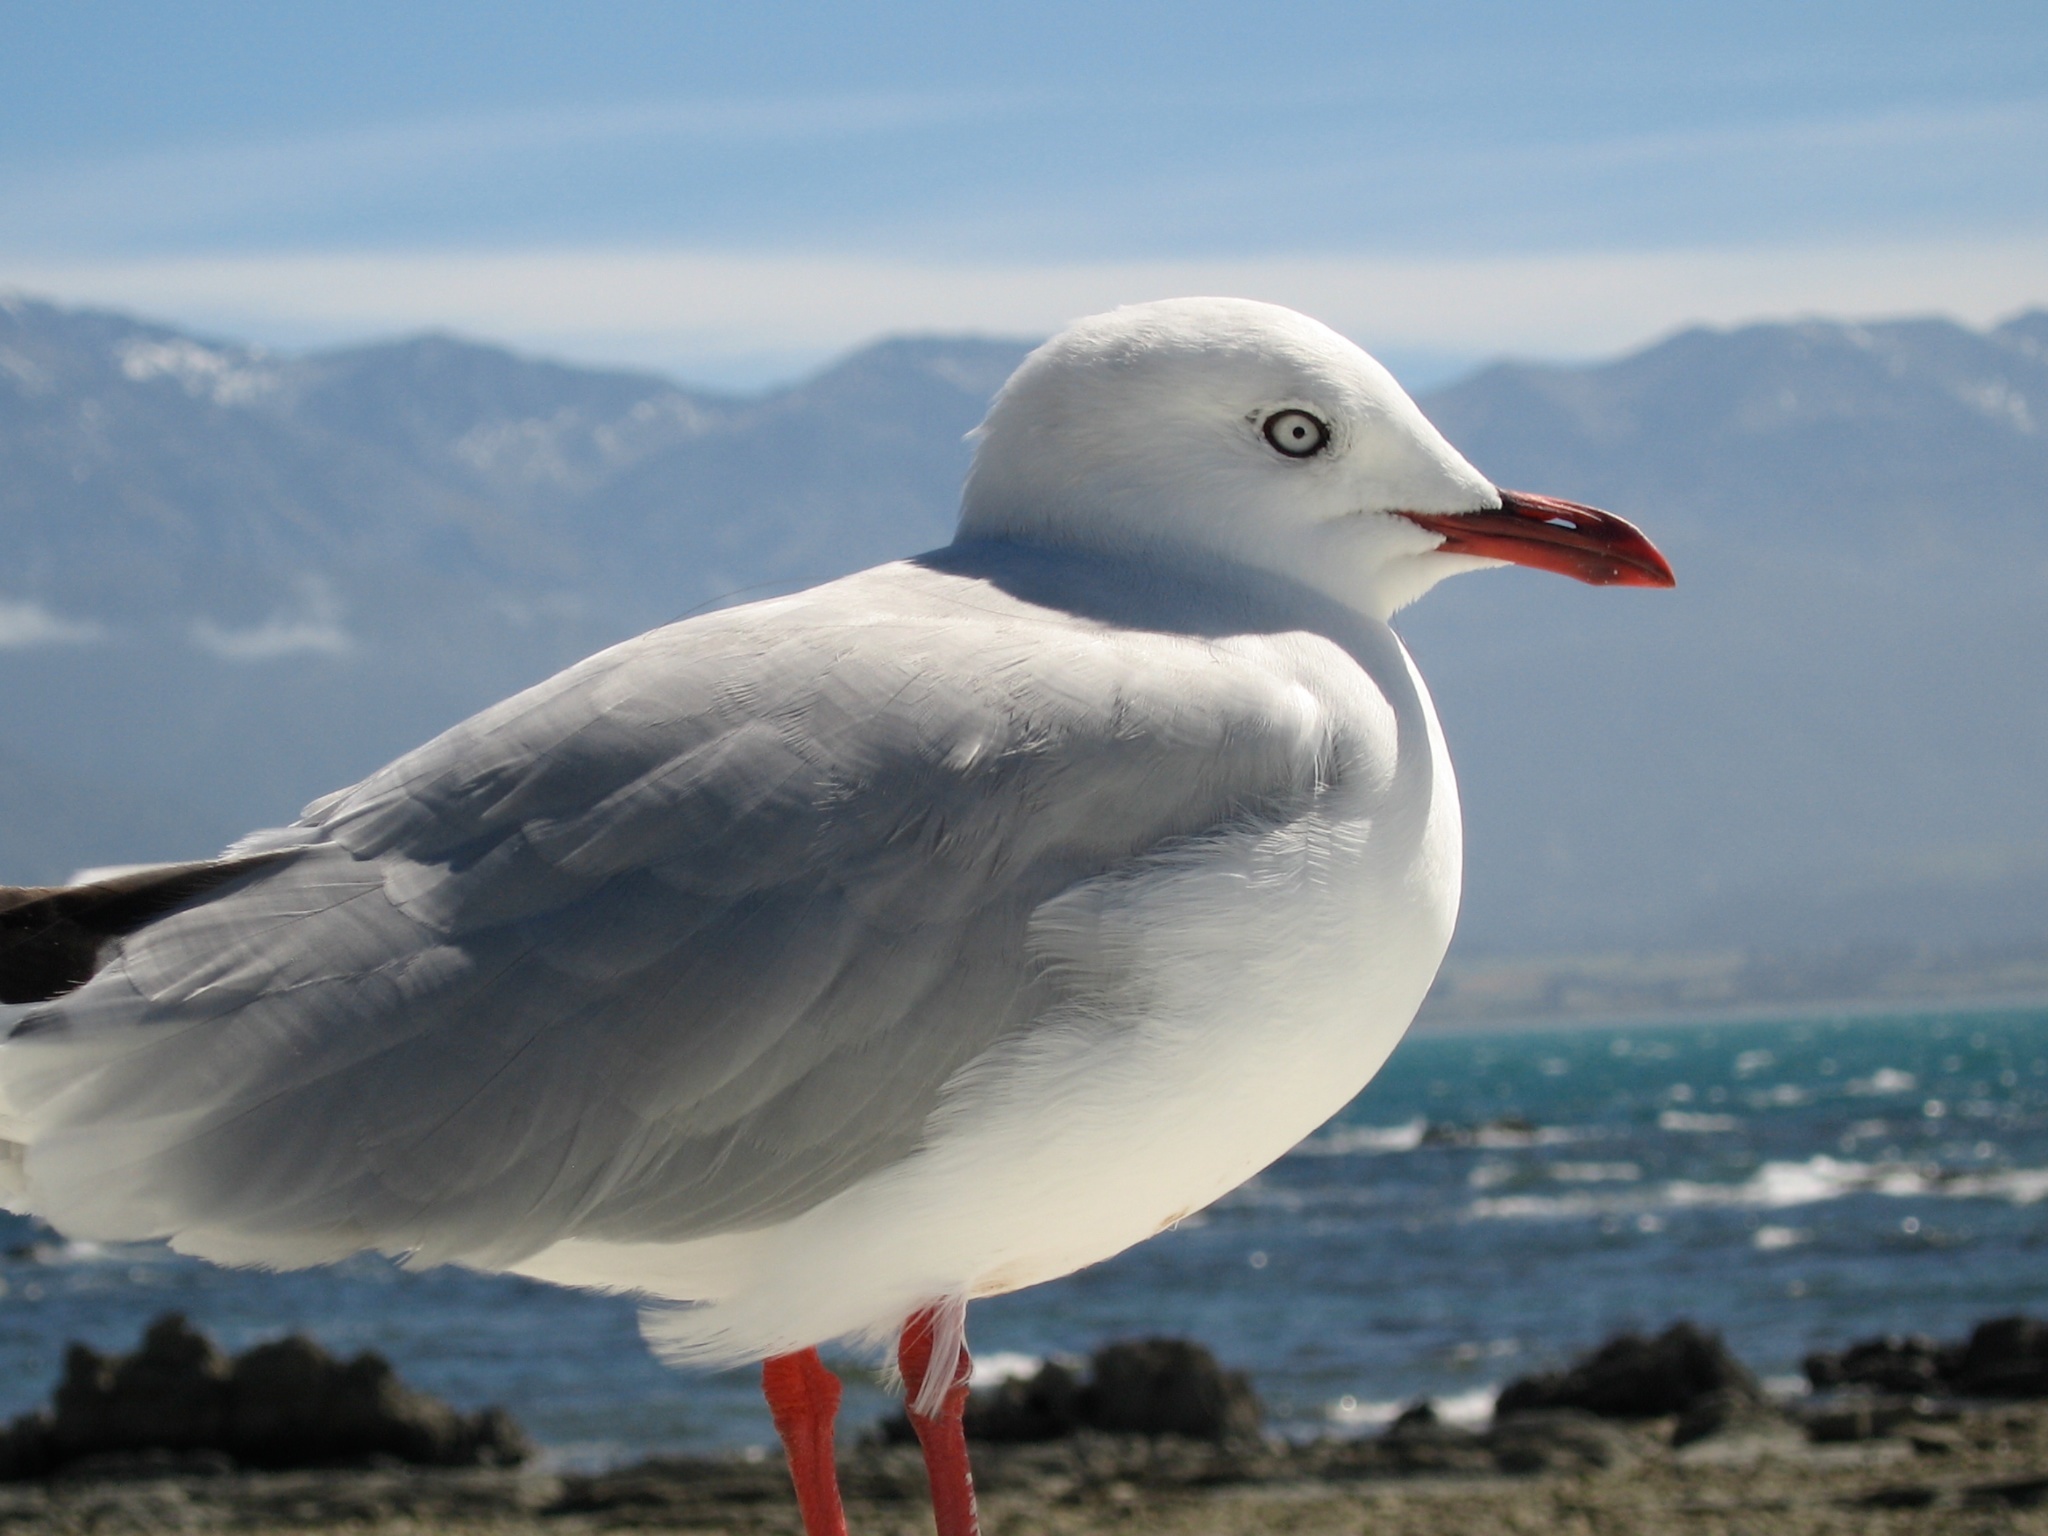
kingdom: Animalia
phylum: Chordata
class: Aves
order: Charadriiformes
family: Laridae
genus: Chroicocephalus
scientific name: Chroicocephalus novaehollandiae
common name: Silver gull
